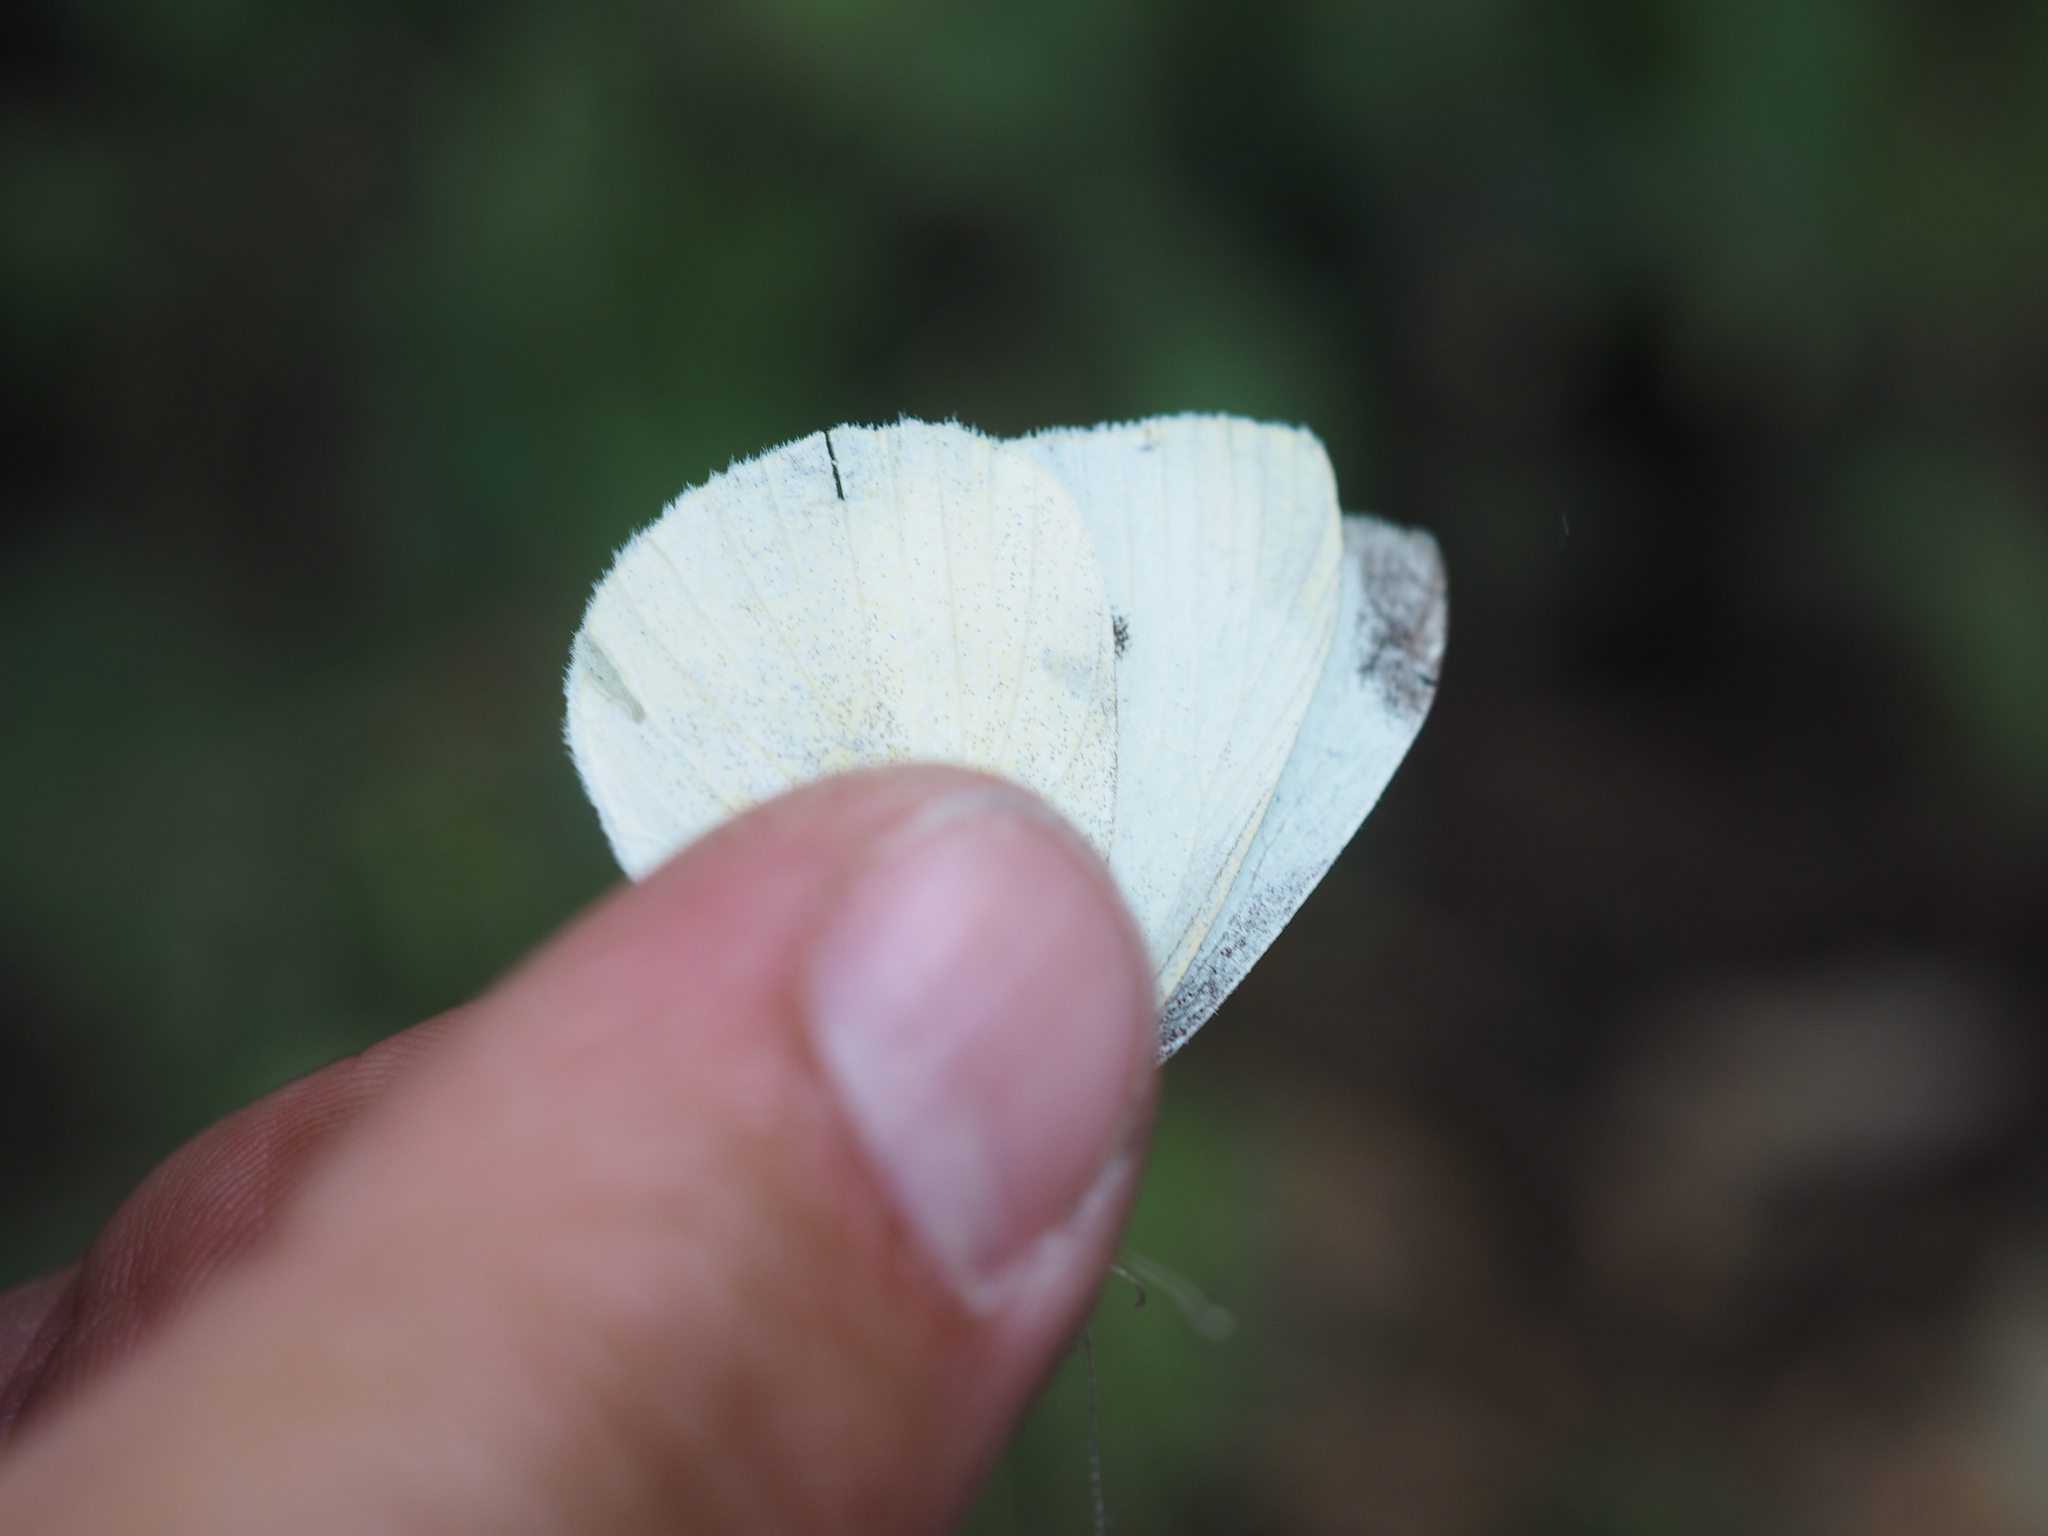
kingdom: Animalia
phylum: Arthropoda
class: Insecta
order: Lepidoptera
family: Pieridae
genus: Pieris
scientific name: Pieris rapae
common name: Small white
